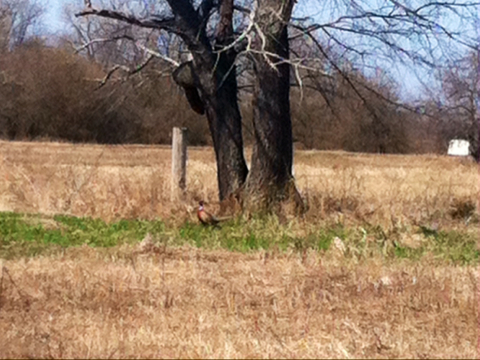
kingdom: Animalia
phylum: Chordata
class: Aves
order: Galliformes
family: Phasianidae
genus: Phasianus
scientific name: Phasianus colchicus
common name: Common pheasant
